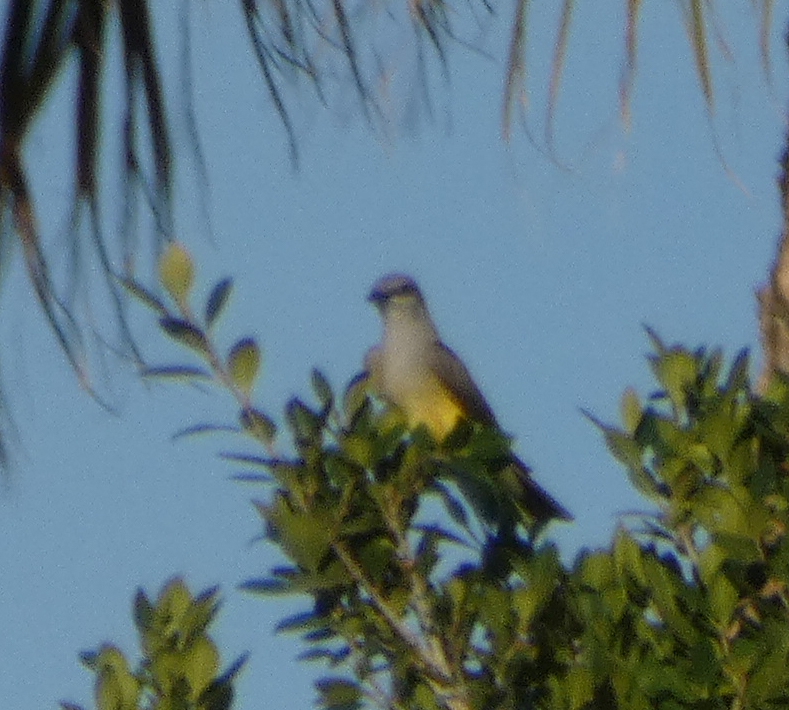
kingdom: Animalia
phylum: Chordata
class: Aves
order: Passeriformes
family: Tyrannidae
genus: Tyrannus
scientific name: Tyrannus verticalis
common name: Western kingbird
